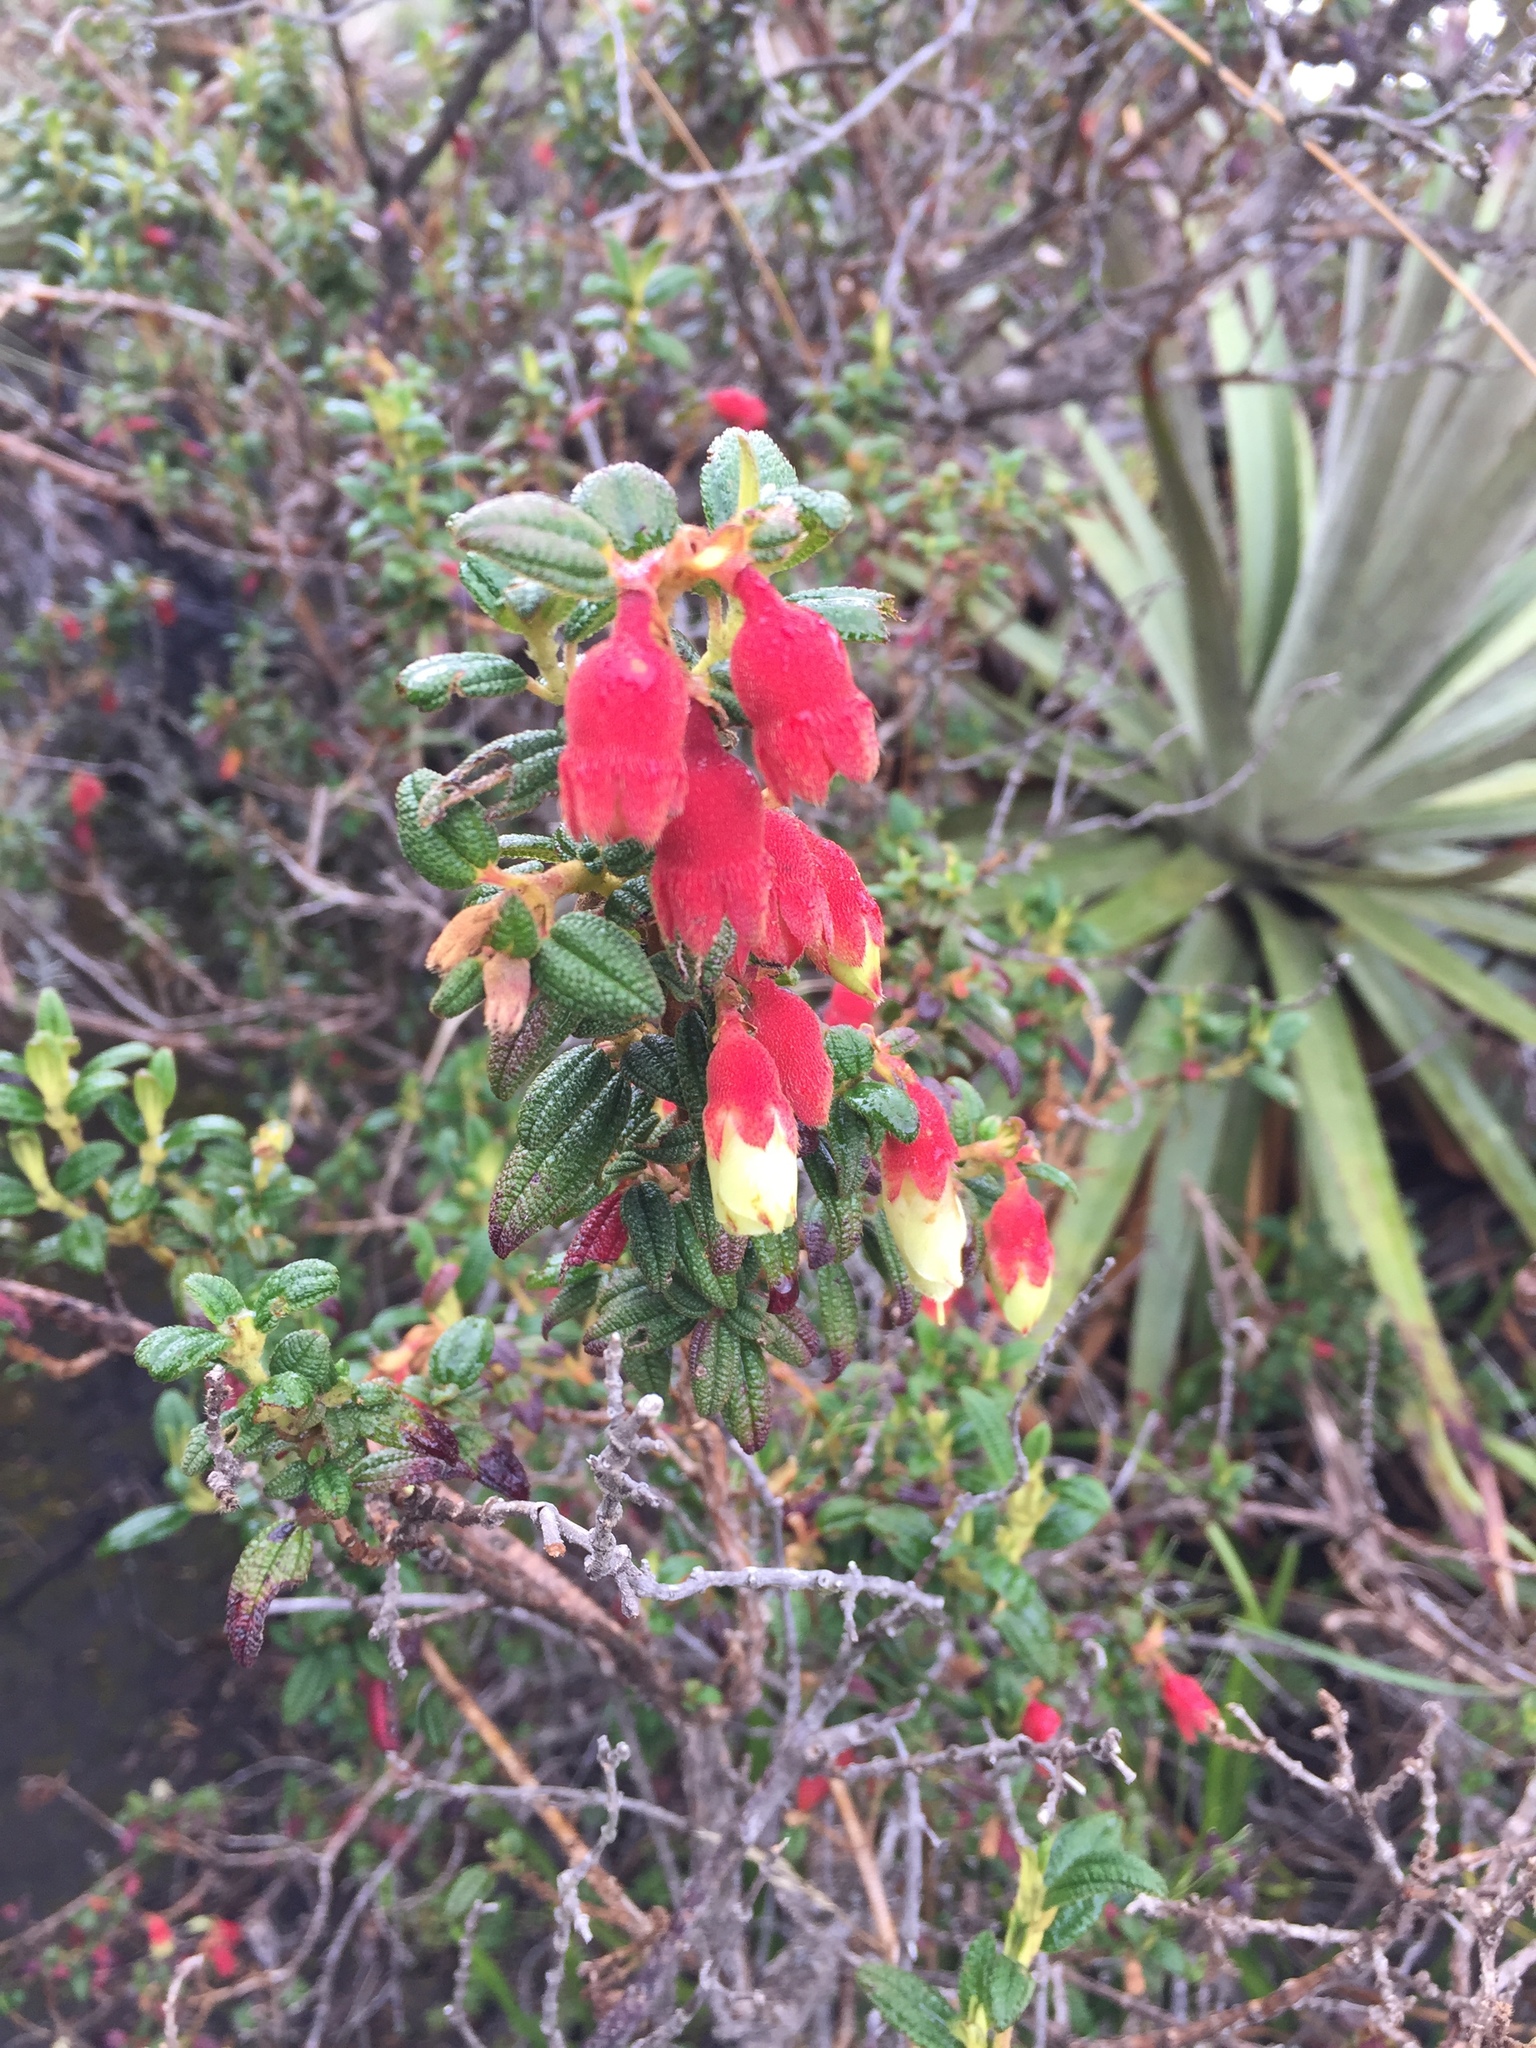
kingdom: Plantae
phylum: Tracheophyta
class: Magnoliopsida
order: Myrtales
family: Melastomataceae
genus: Brachyotum
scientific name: Brachyotum ledifolium
